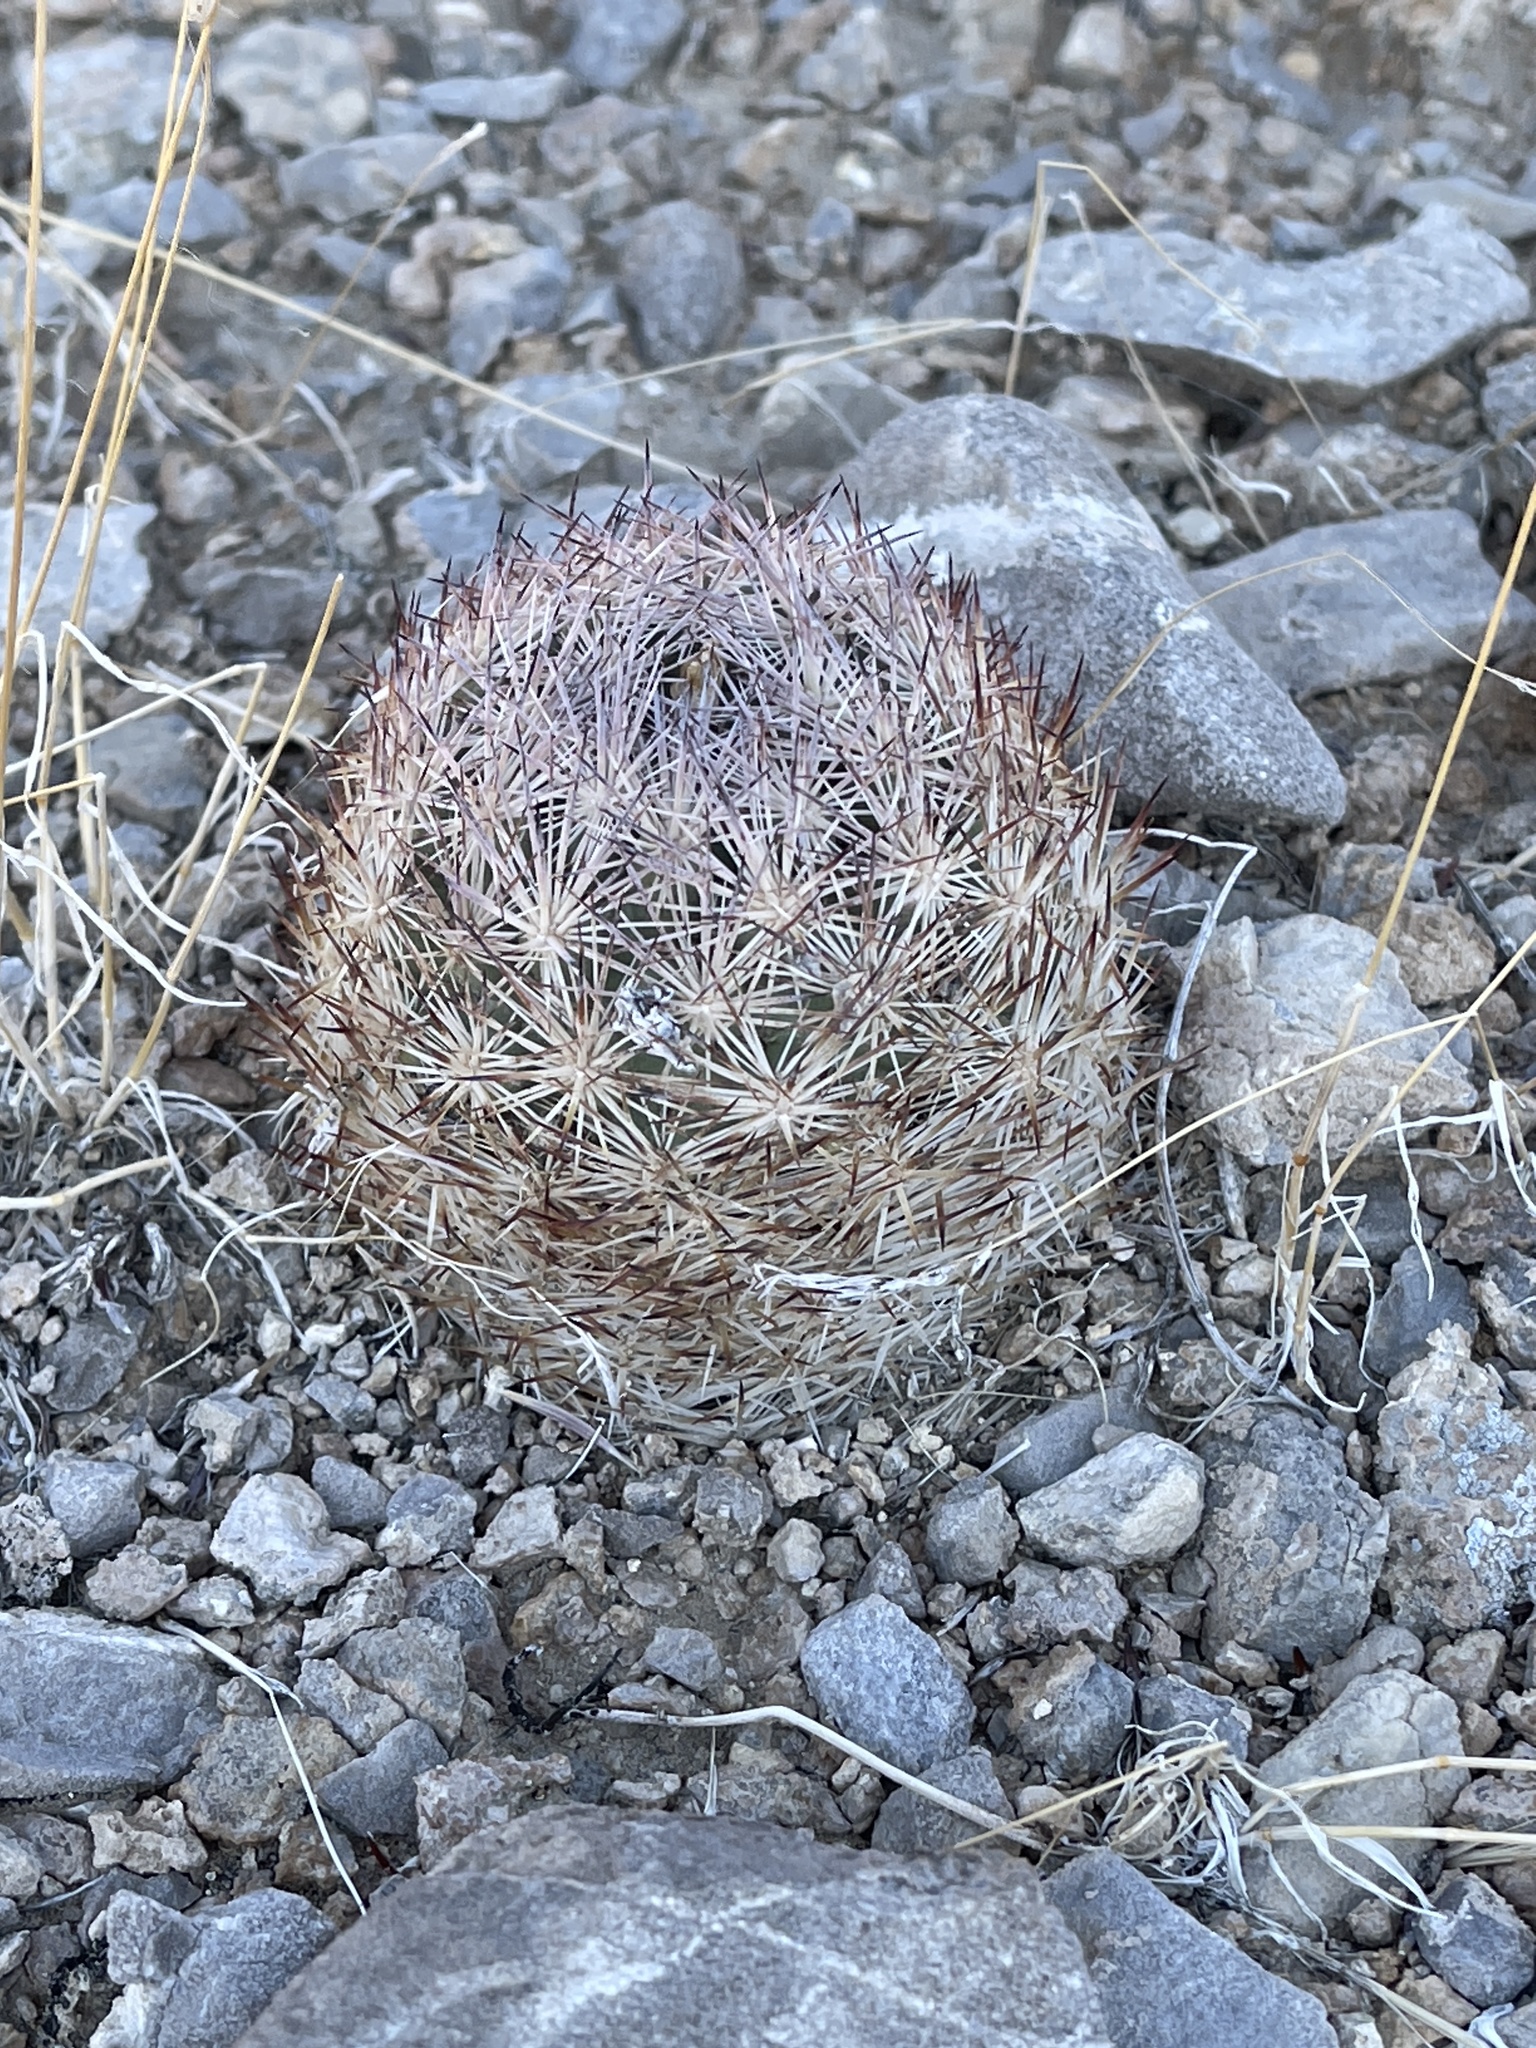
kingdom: Plantae
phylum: Tracheophyta
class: Magnoliopsida
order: Caryophyllales
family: Cactaceae
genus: Pelecyphora
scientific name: Pelecyphora dasyacantha
